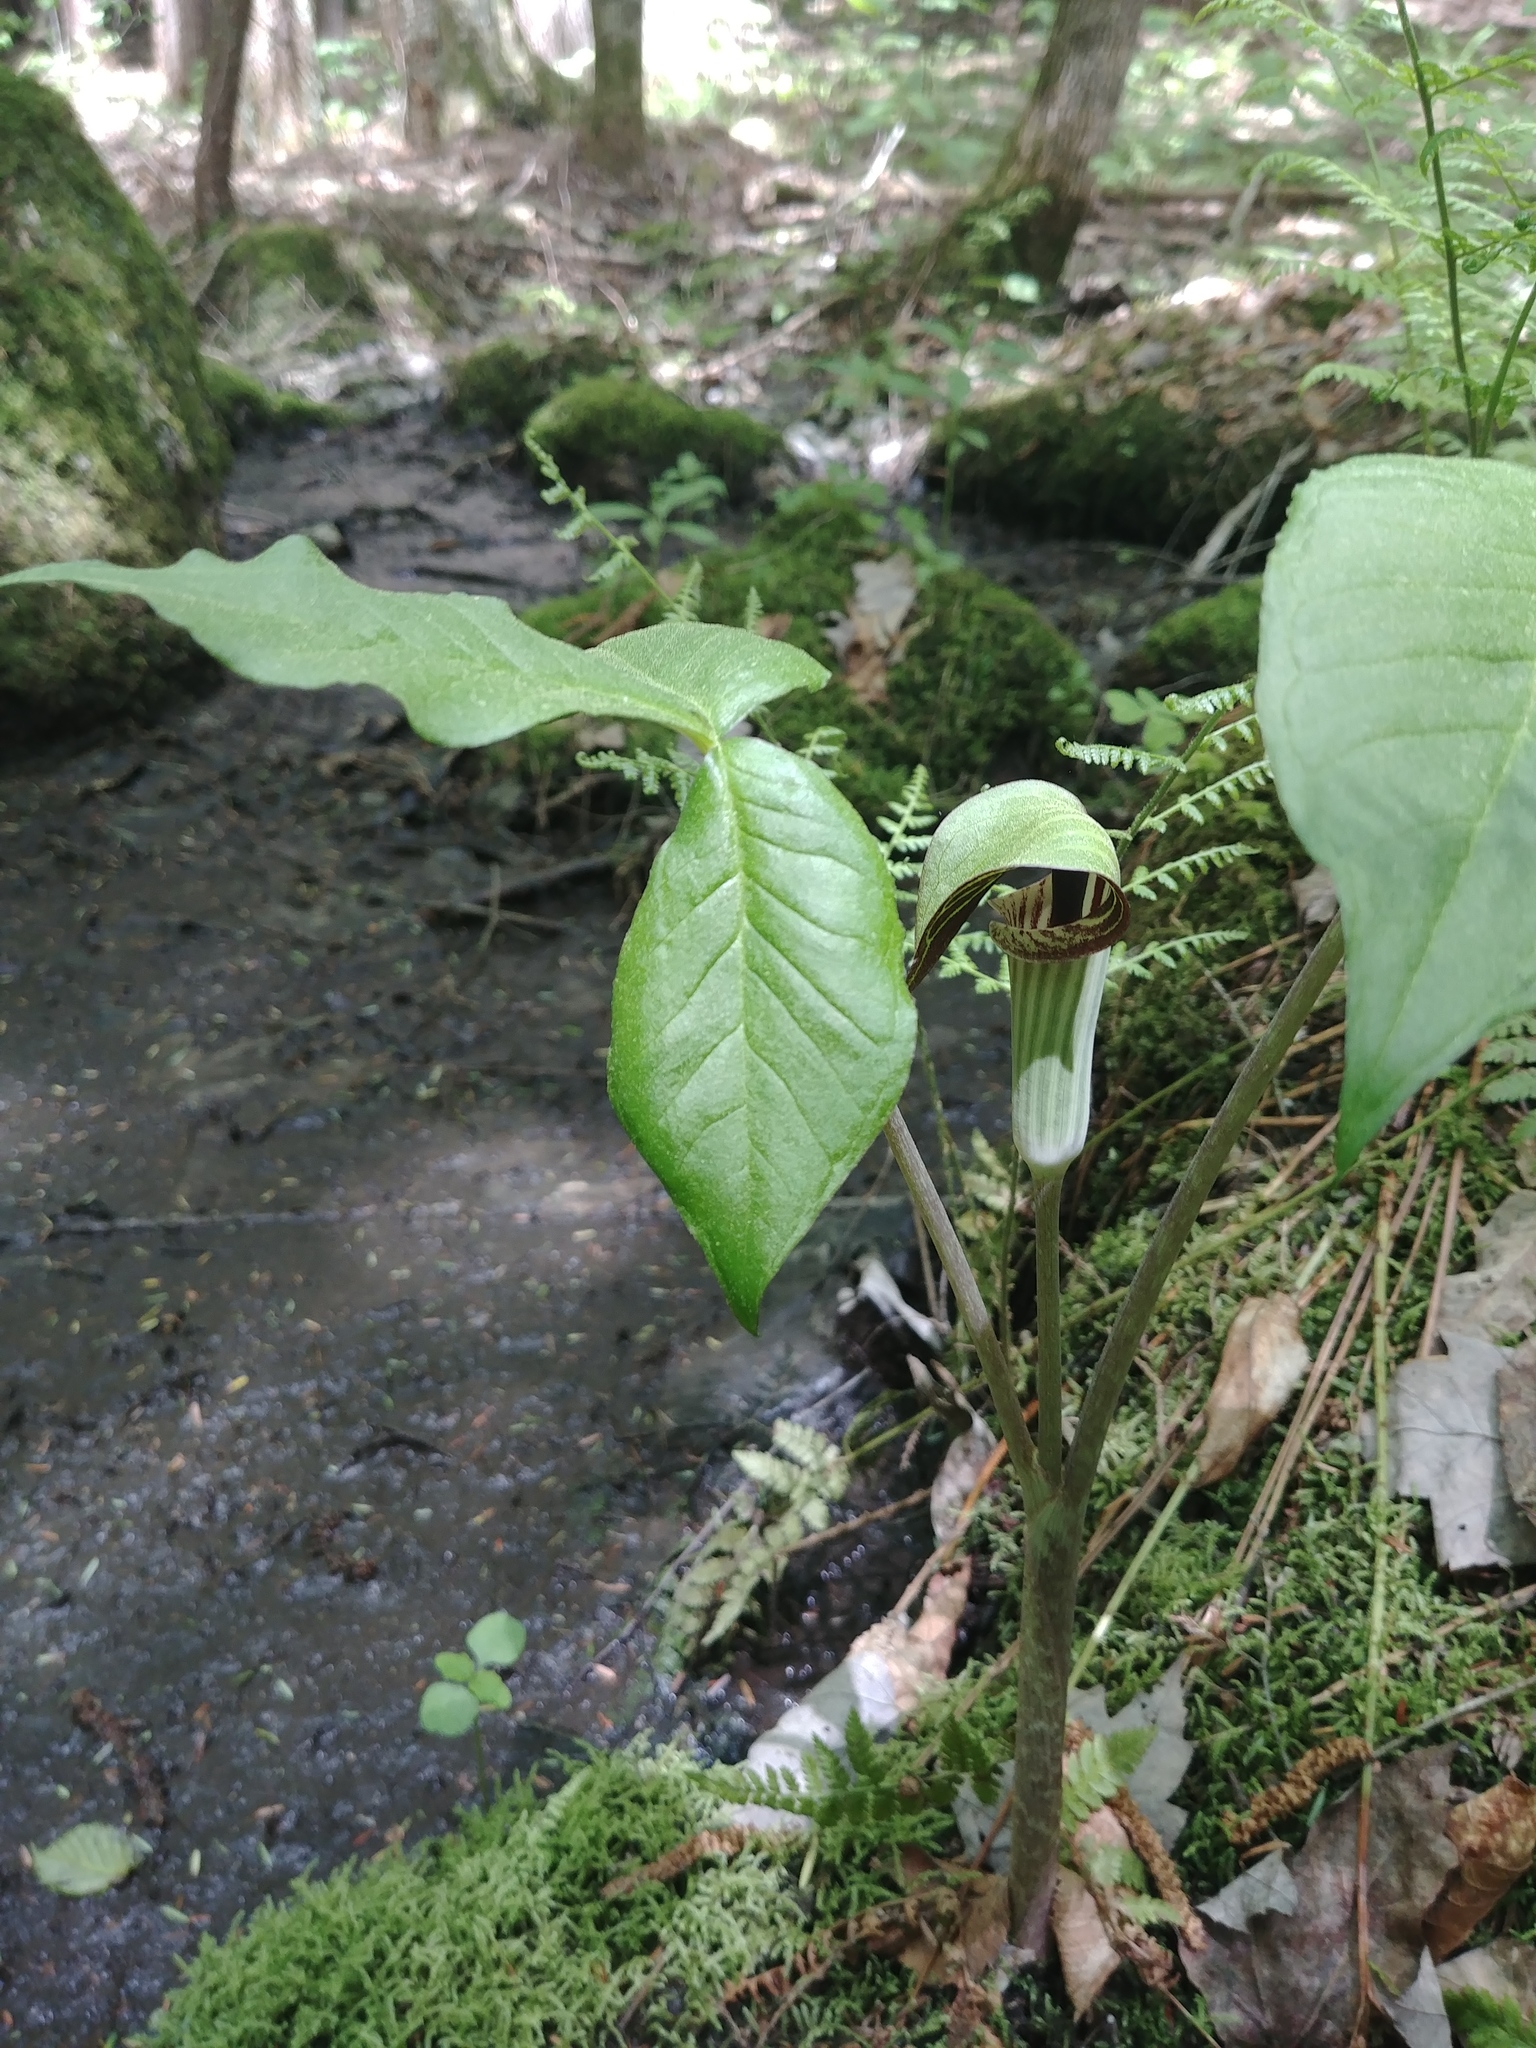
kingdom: Plantae
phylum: Tracheophyta
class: Liliopsida
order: Alismatales
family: Araceae
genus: Arisaema
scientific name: Arisaema triphyllum
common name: Jack-in-the-pulpit
